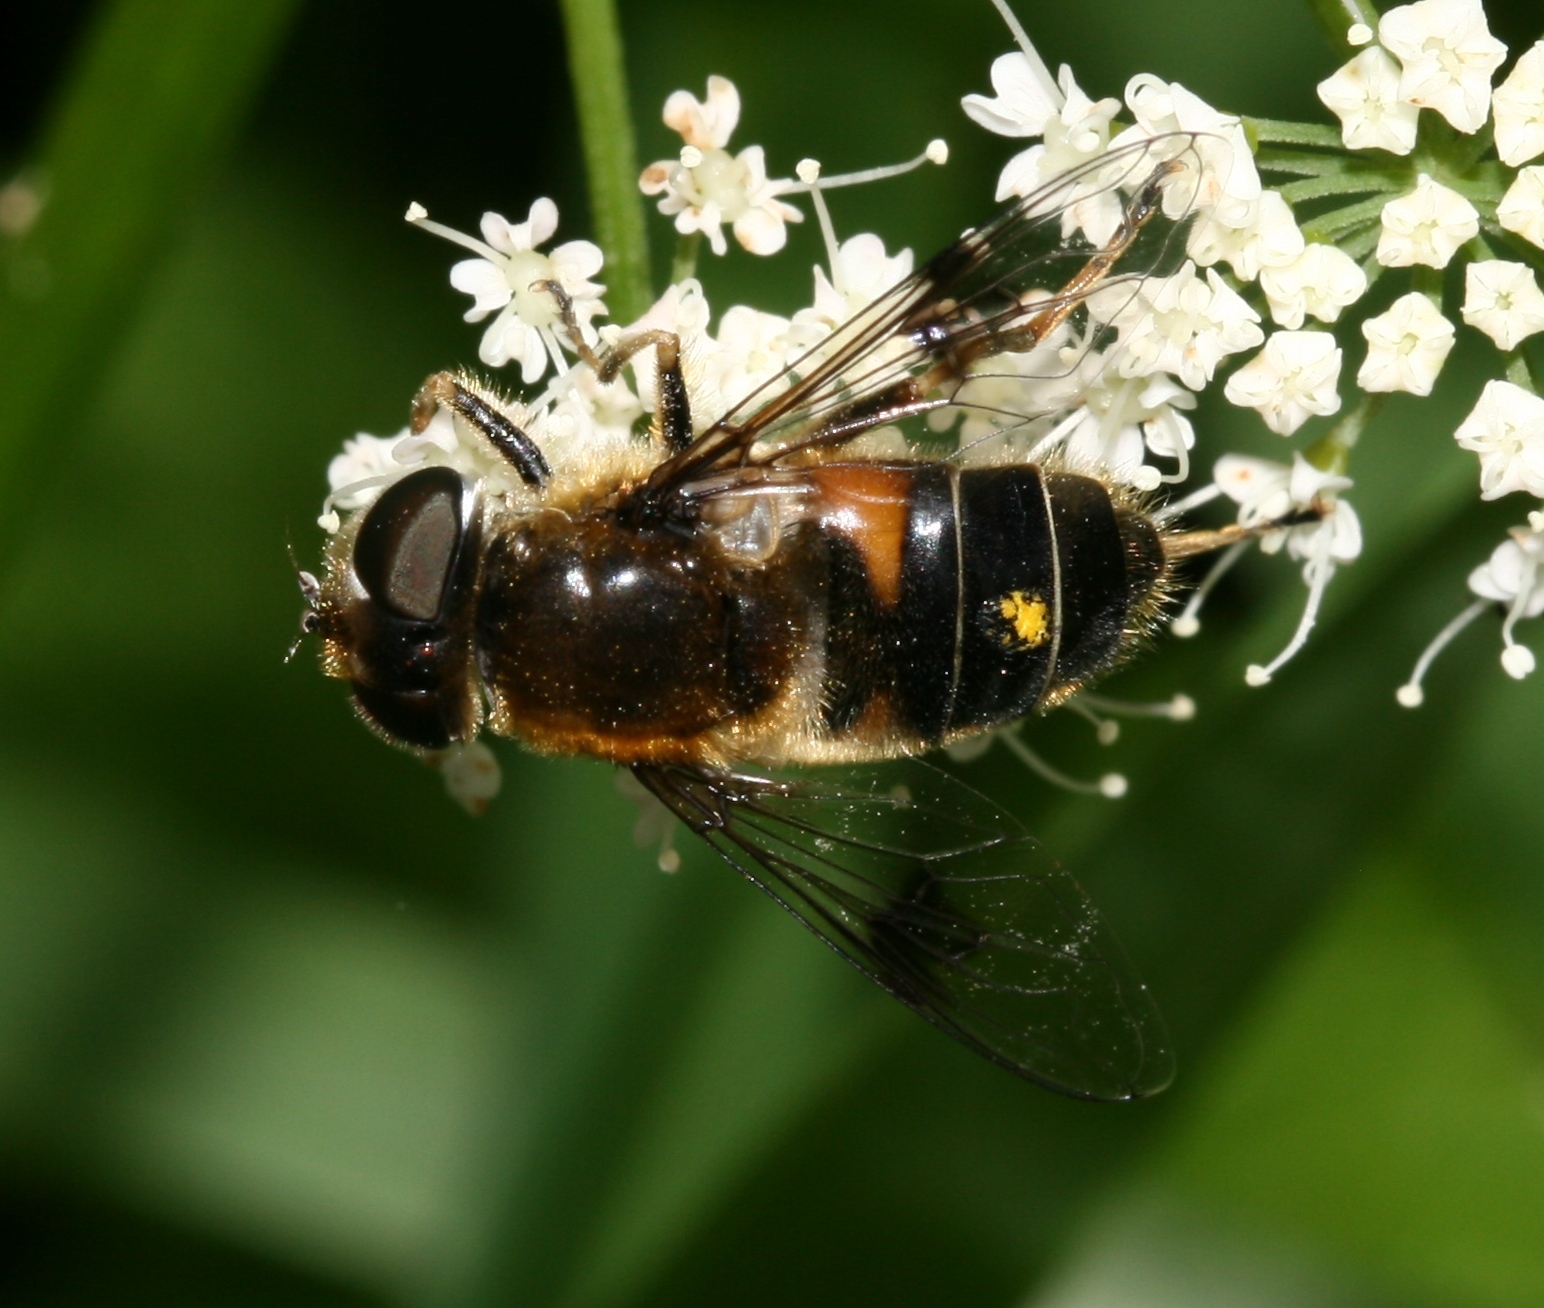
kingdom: Animalia
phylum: Arthropoda
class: Insecta
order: Diptera
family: Syrphidae
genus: Eristalis
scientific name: Eristalis rupium
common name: Hover fly
